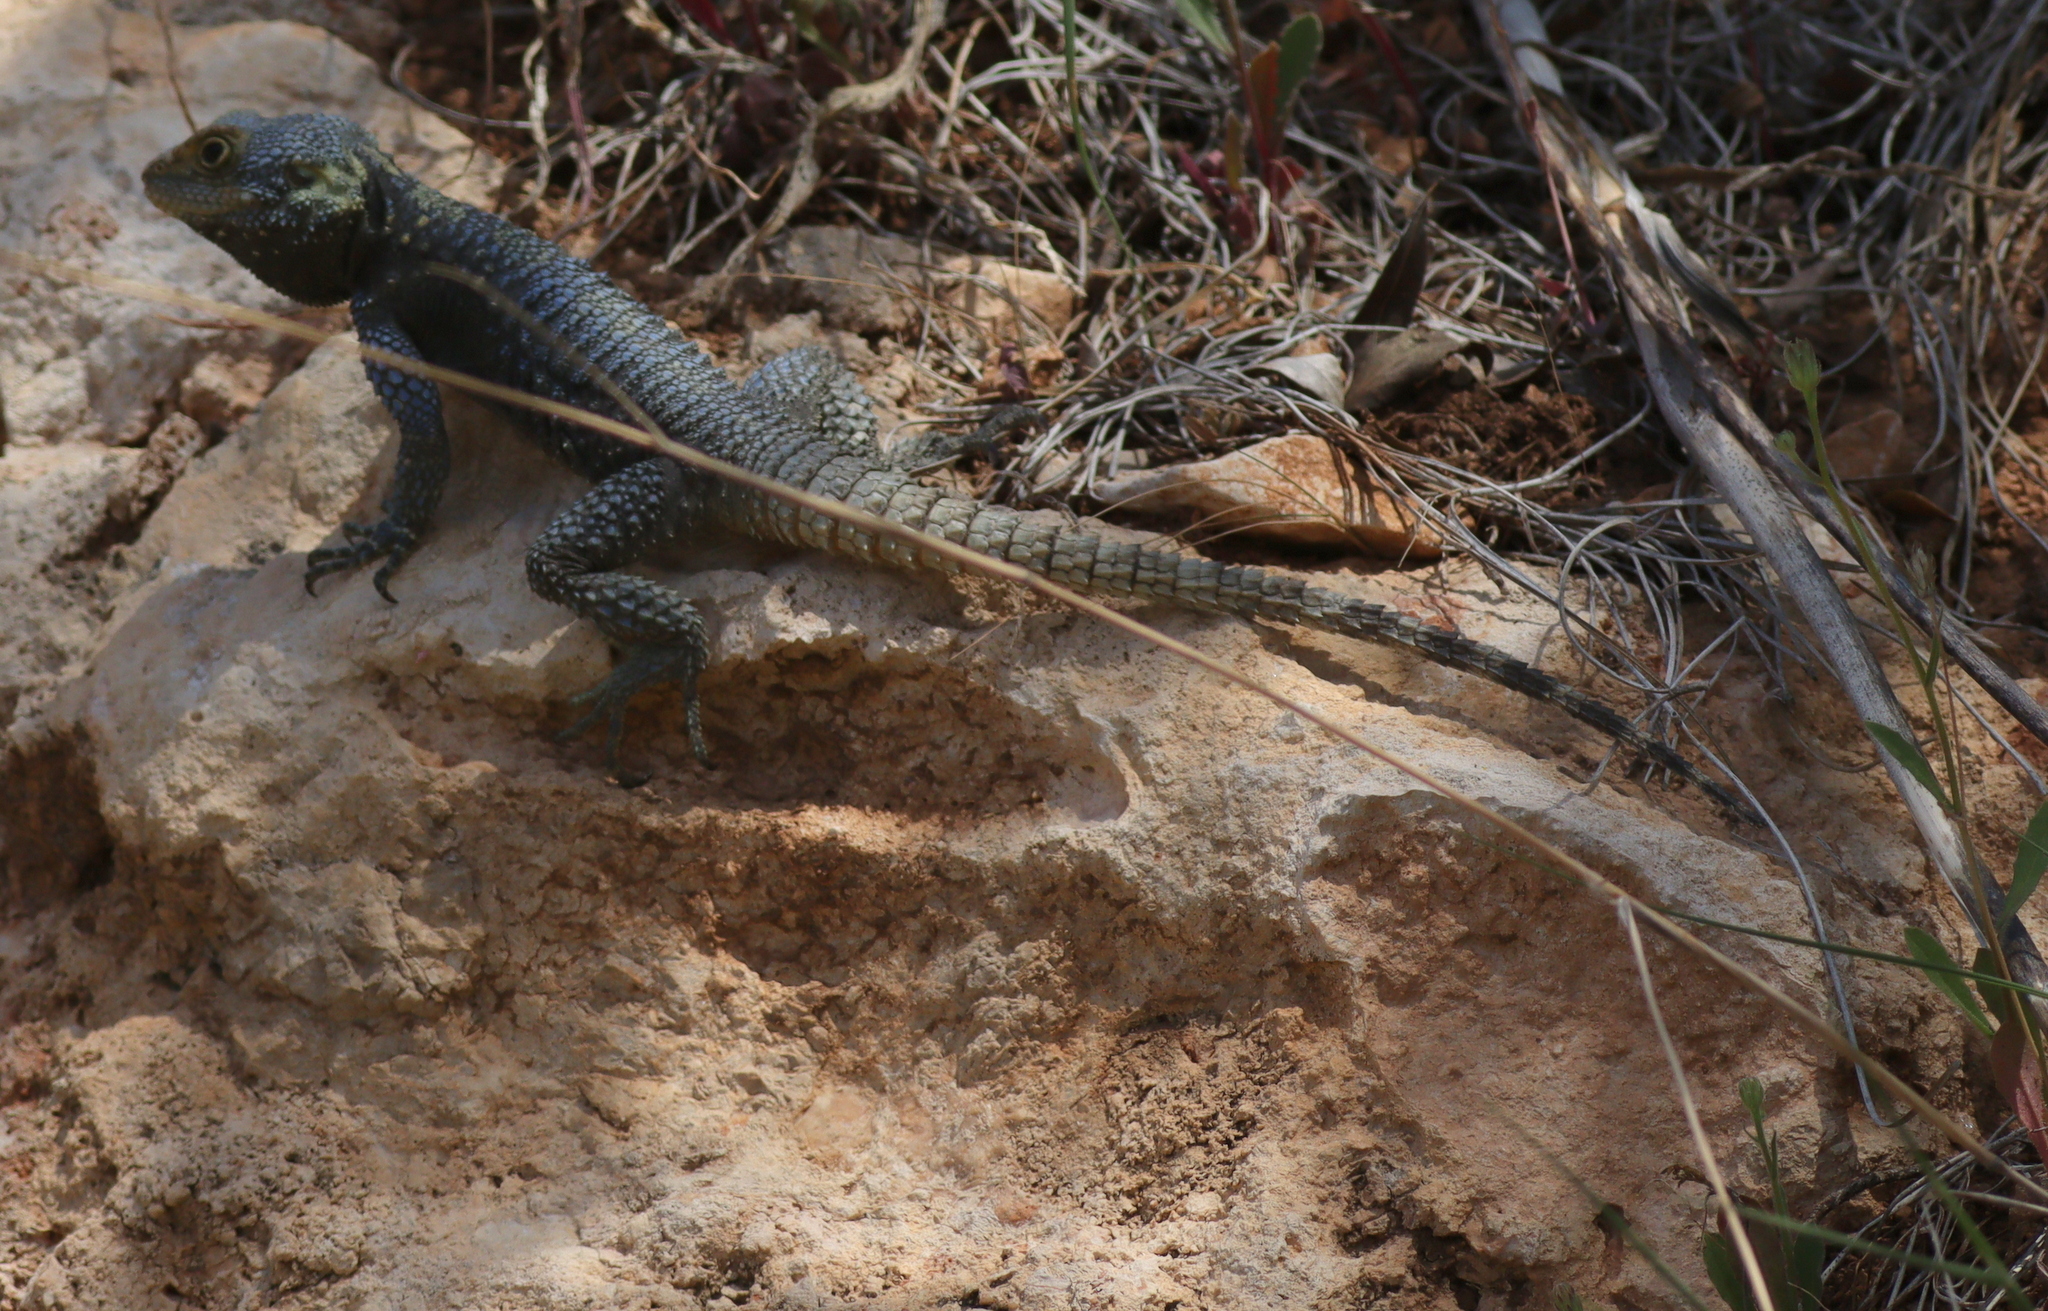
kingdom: Animalia
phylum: Chordata
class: Squamata
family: Agamidae
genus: Stellagama
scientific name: Stellagama stellio
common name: Starred agama
